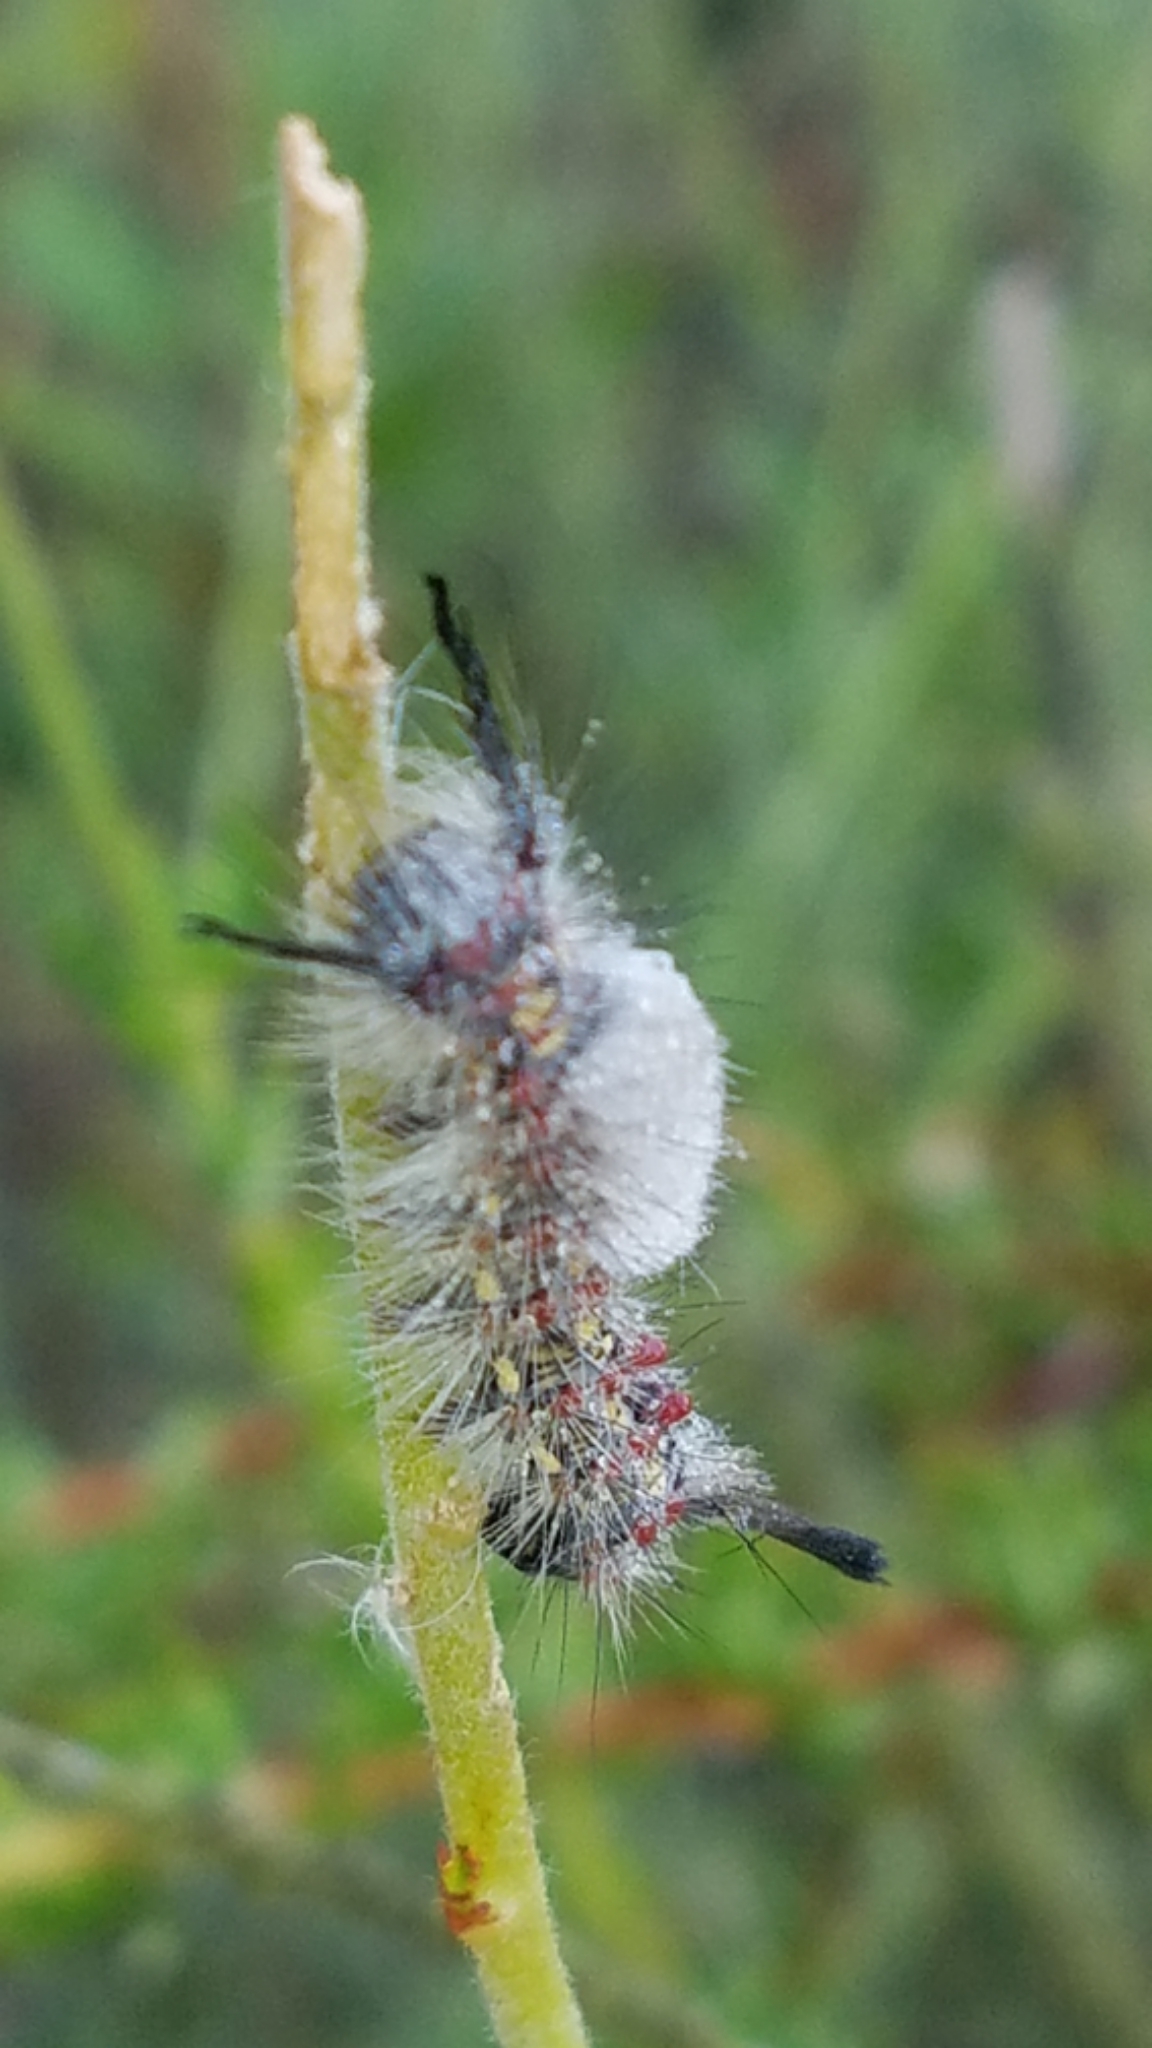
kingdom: Animalia
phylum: Arthropoda
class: Insecta
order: Lepidoptera
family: Erebidae
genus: Orgyia
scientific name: Orgyia vetusta
